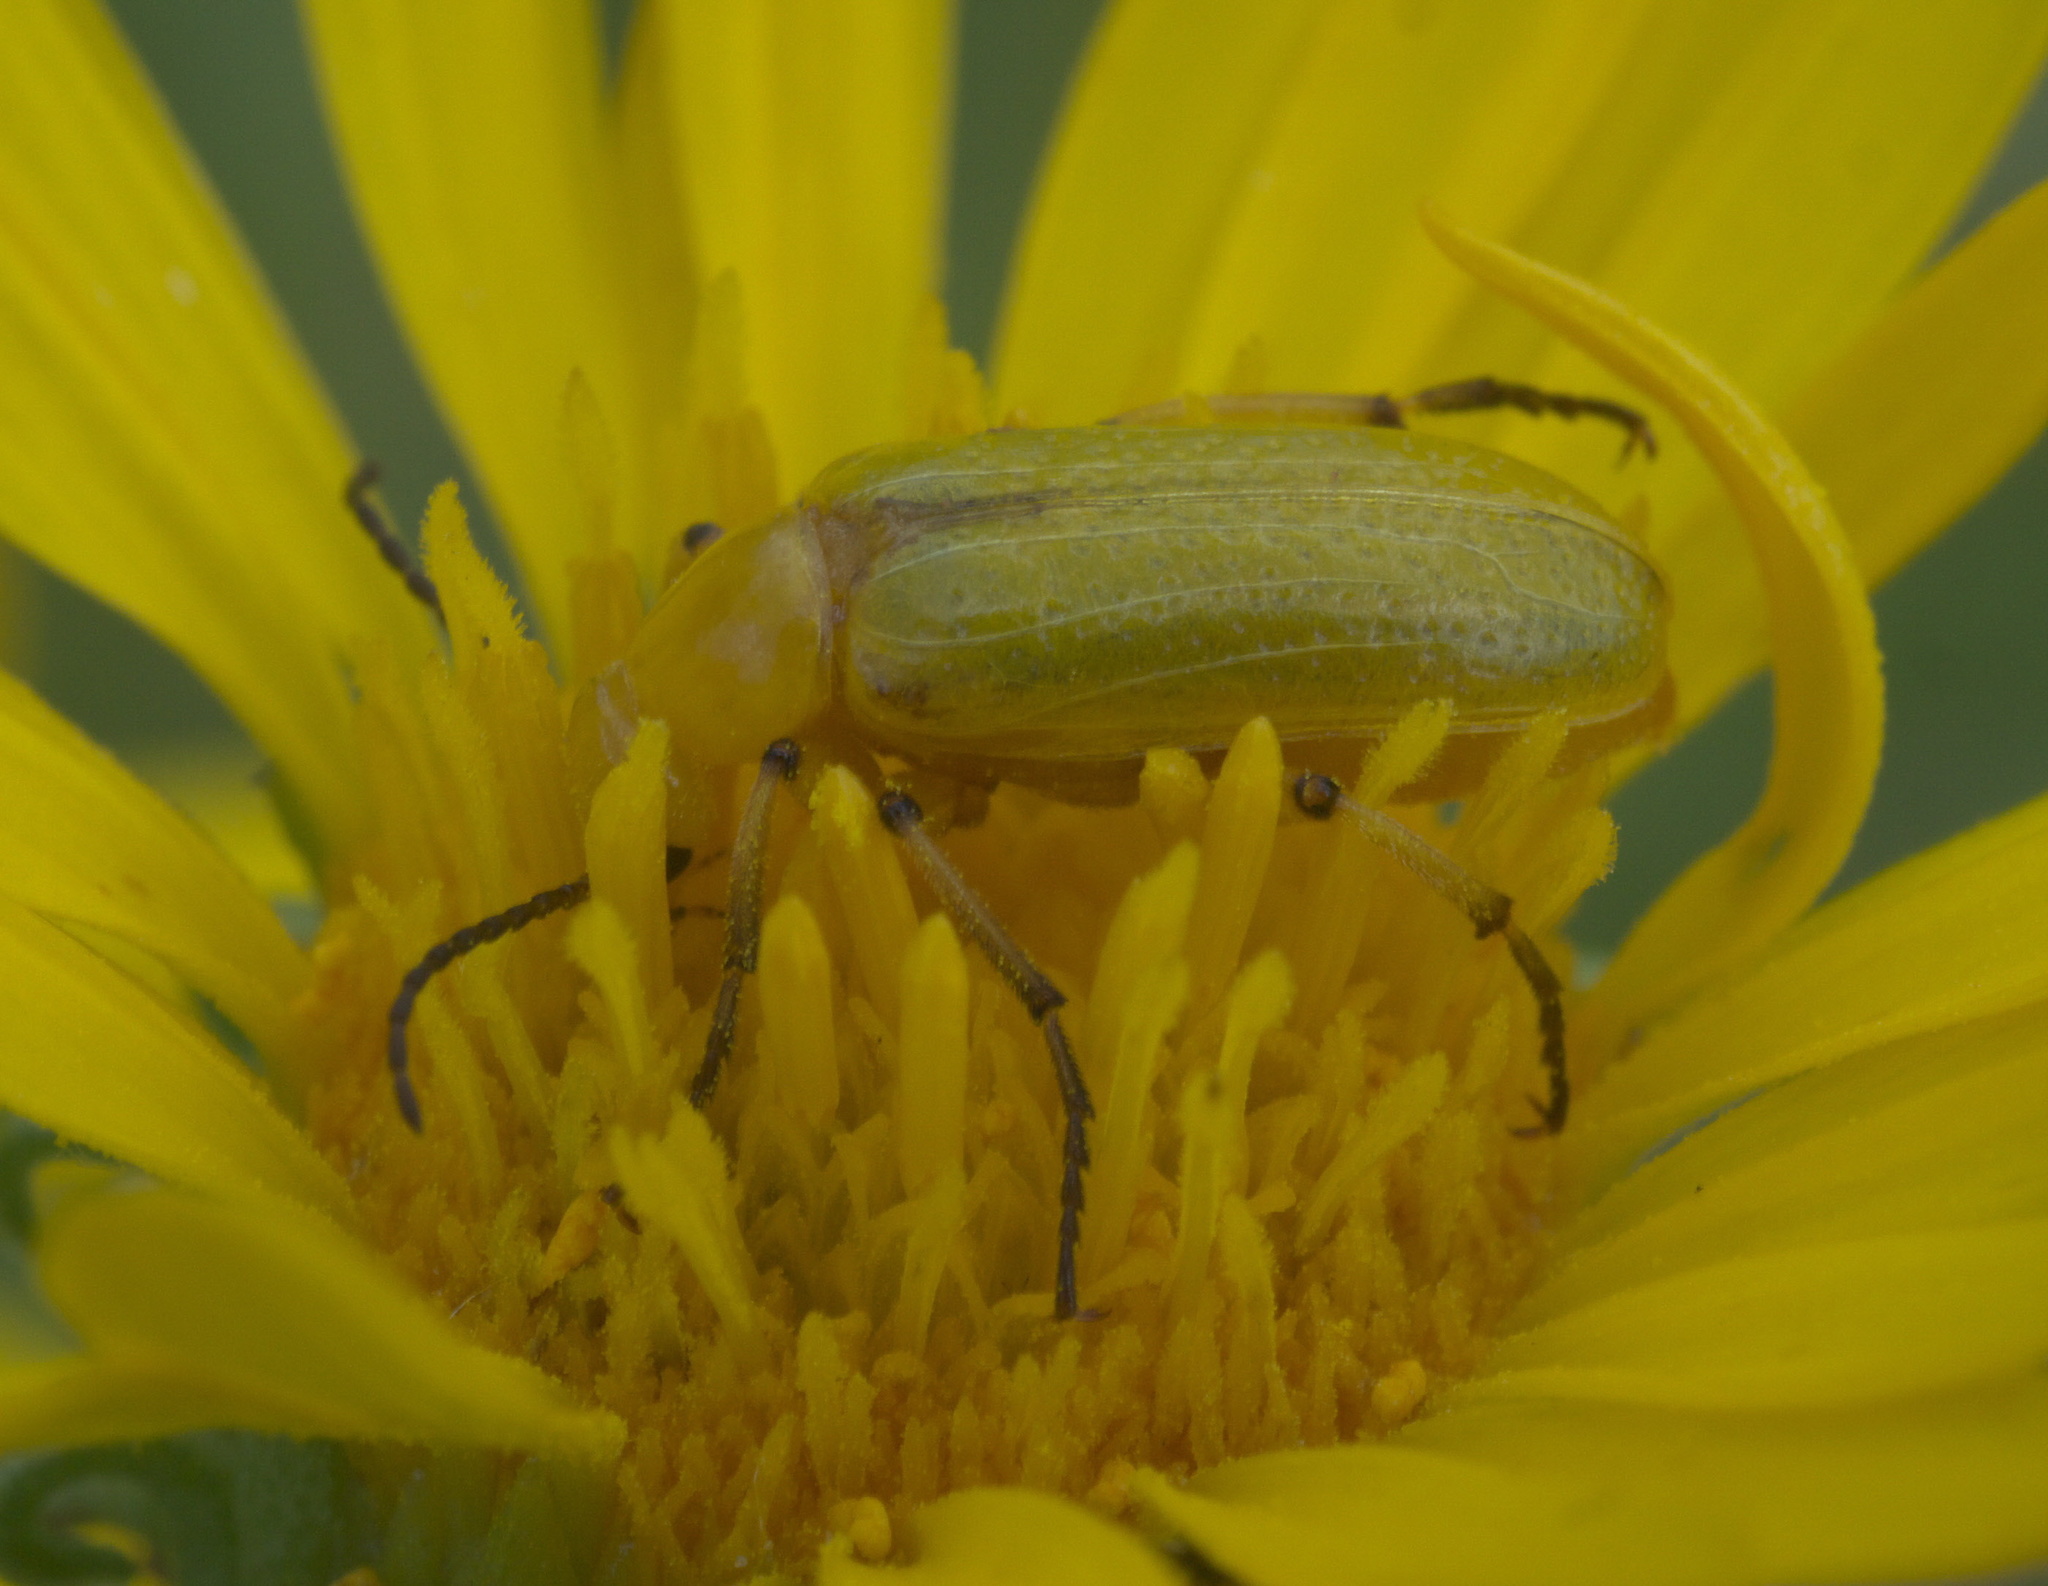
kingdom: Animalia
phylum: Arthropoda
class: Insecta
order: Coleoptera
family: Meloidae
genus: Zonitis
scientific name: Zonitis sayi
